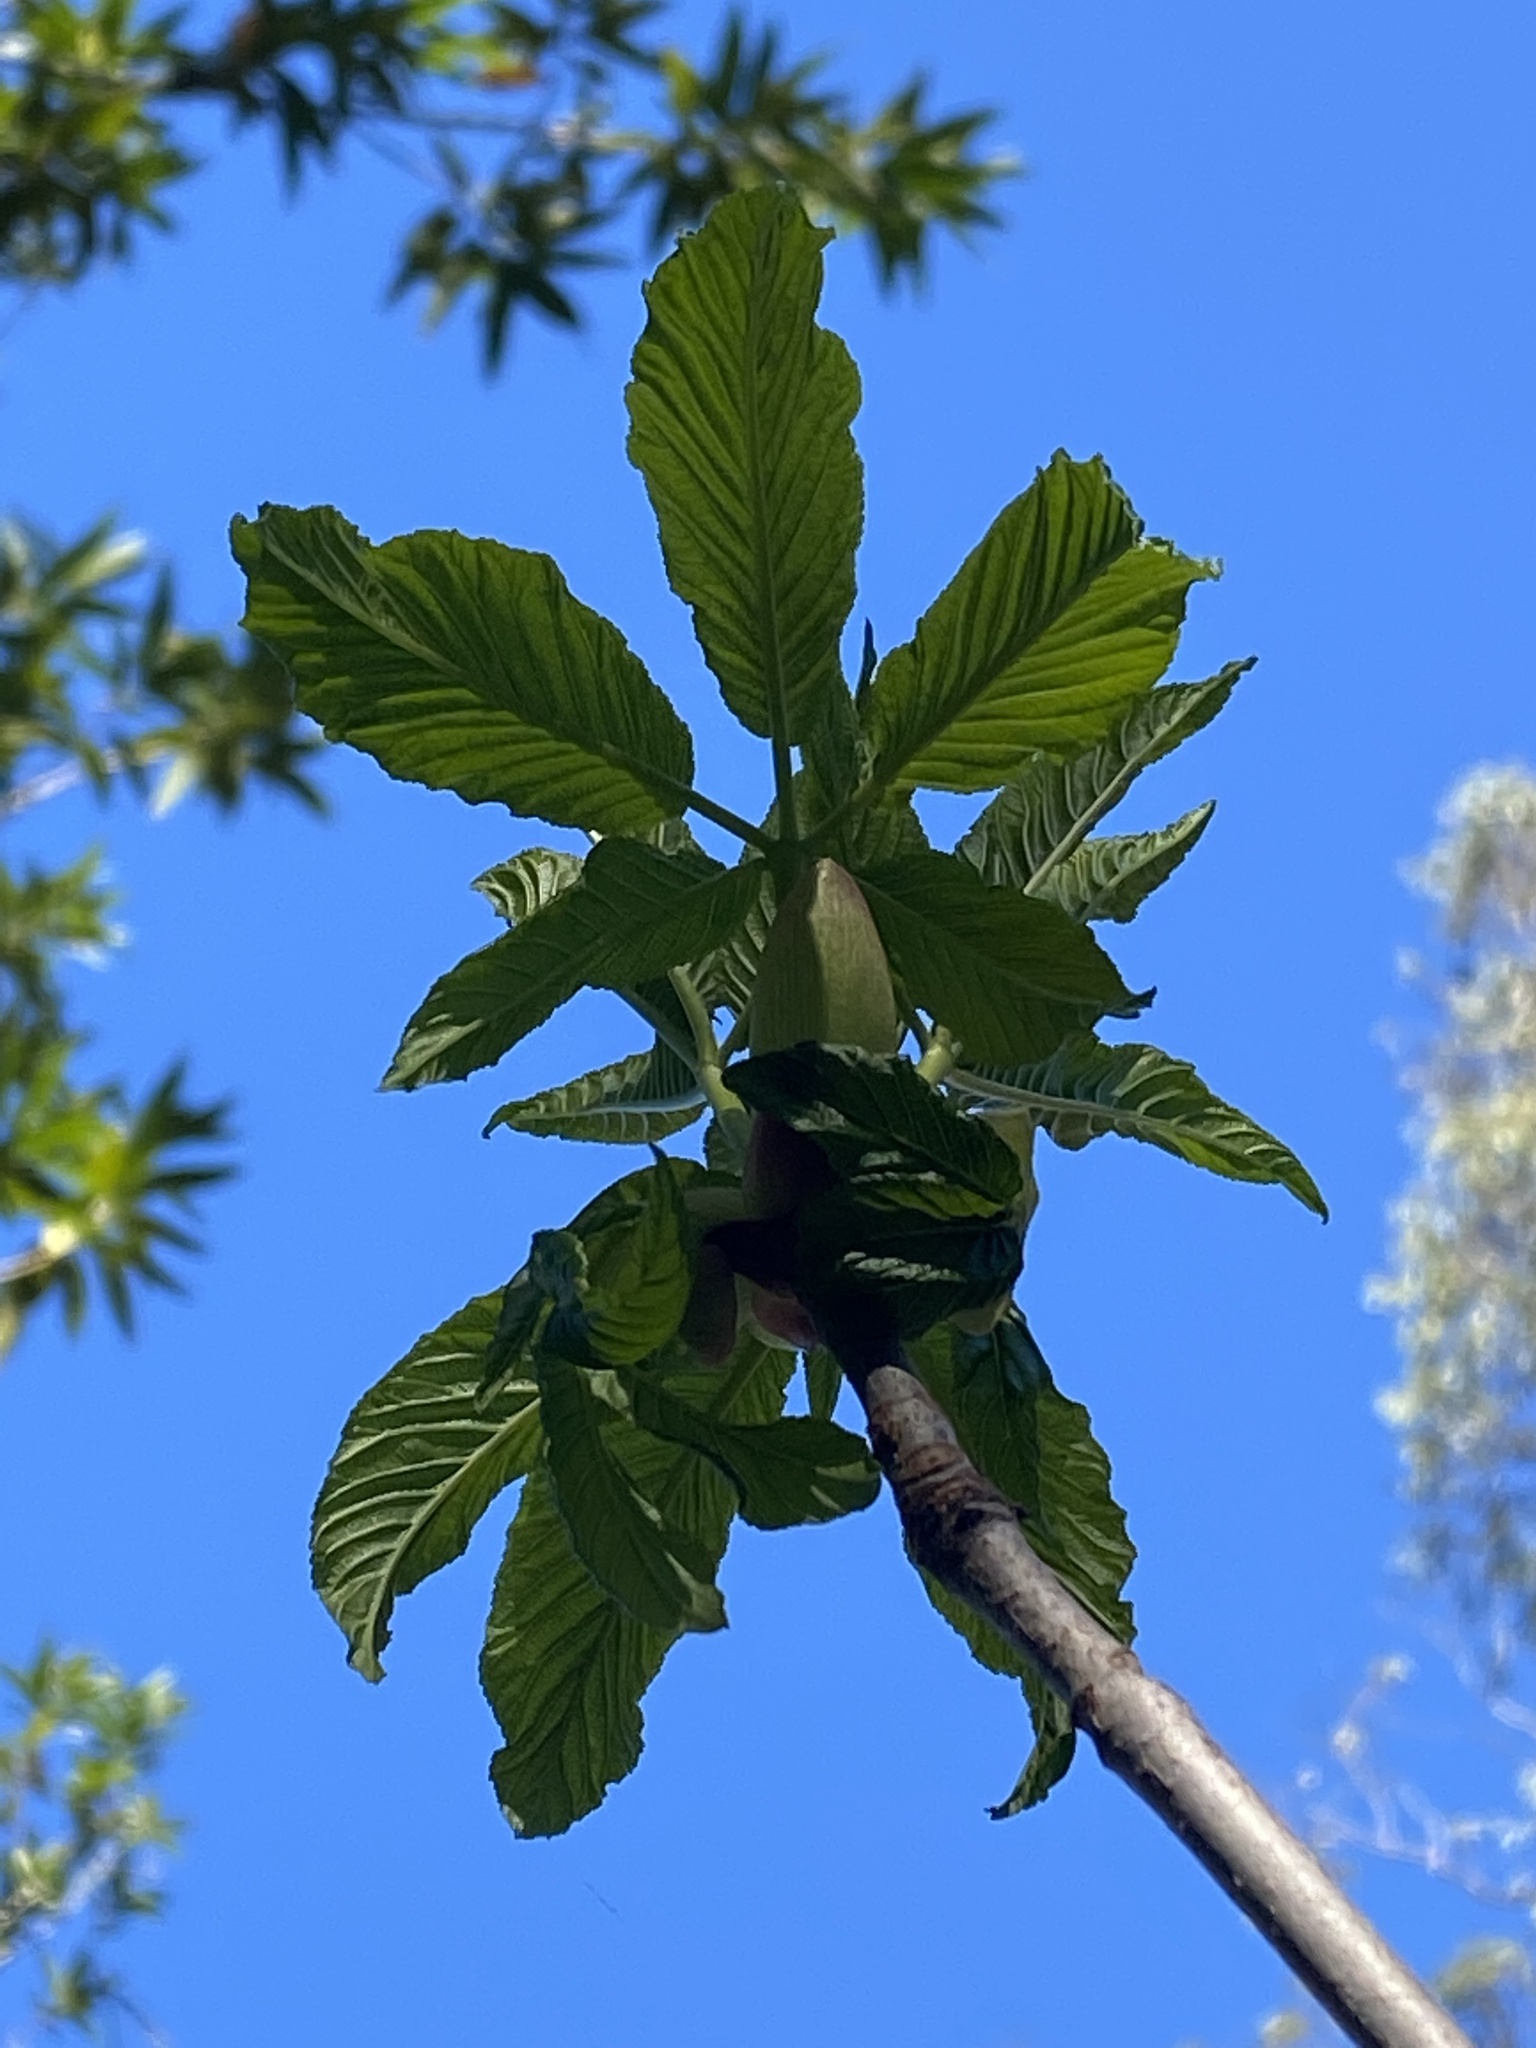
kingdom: Plantae
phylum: Tracheophyta
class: Magnoliopsida
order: Sapindales
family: Sapindaceae
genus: Aesculus
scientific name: Aesculus californica
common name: California buckeye
